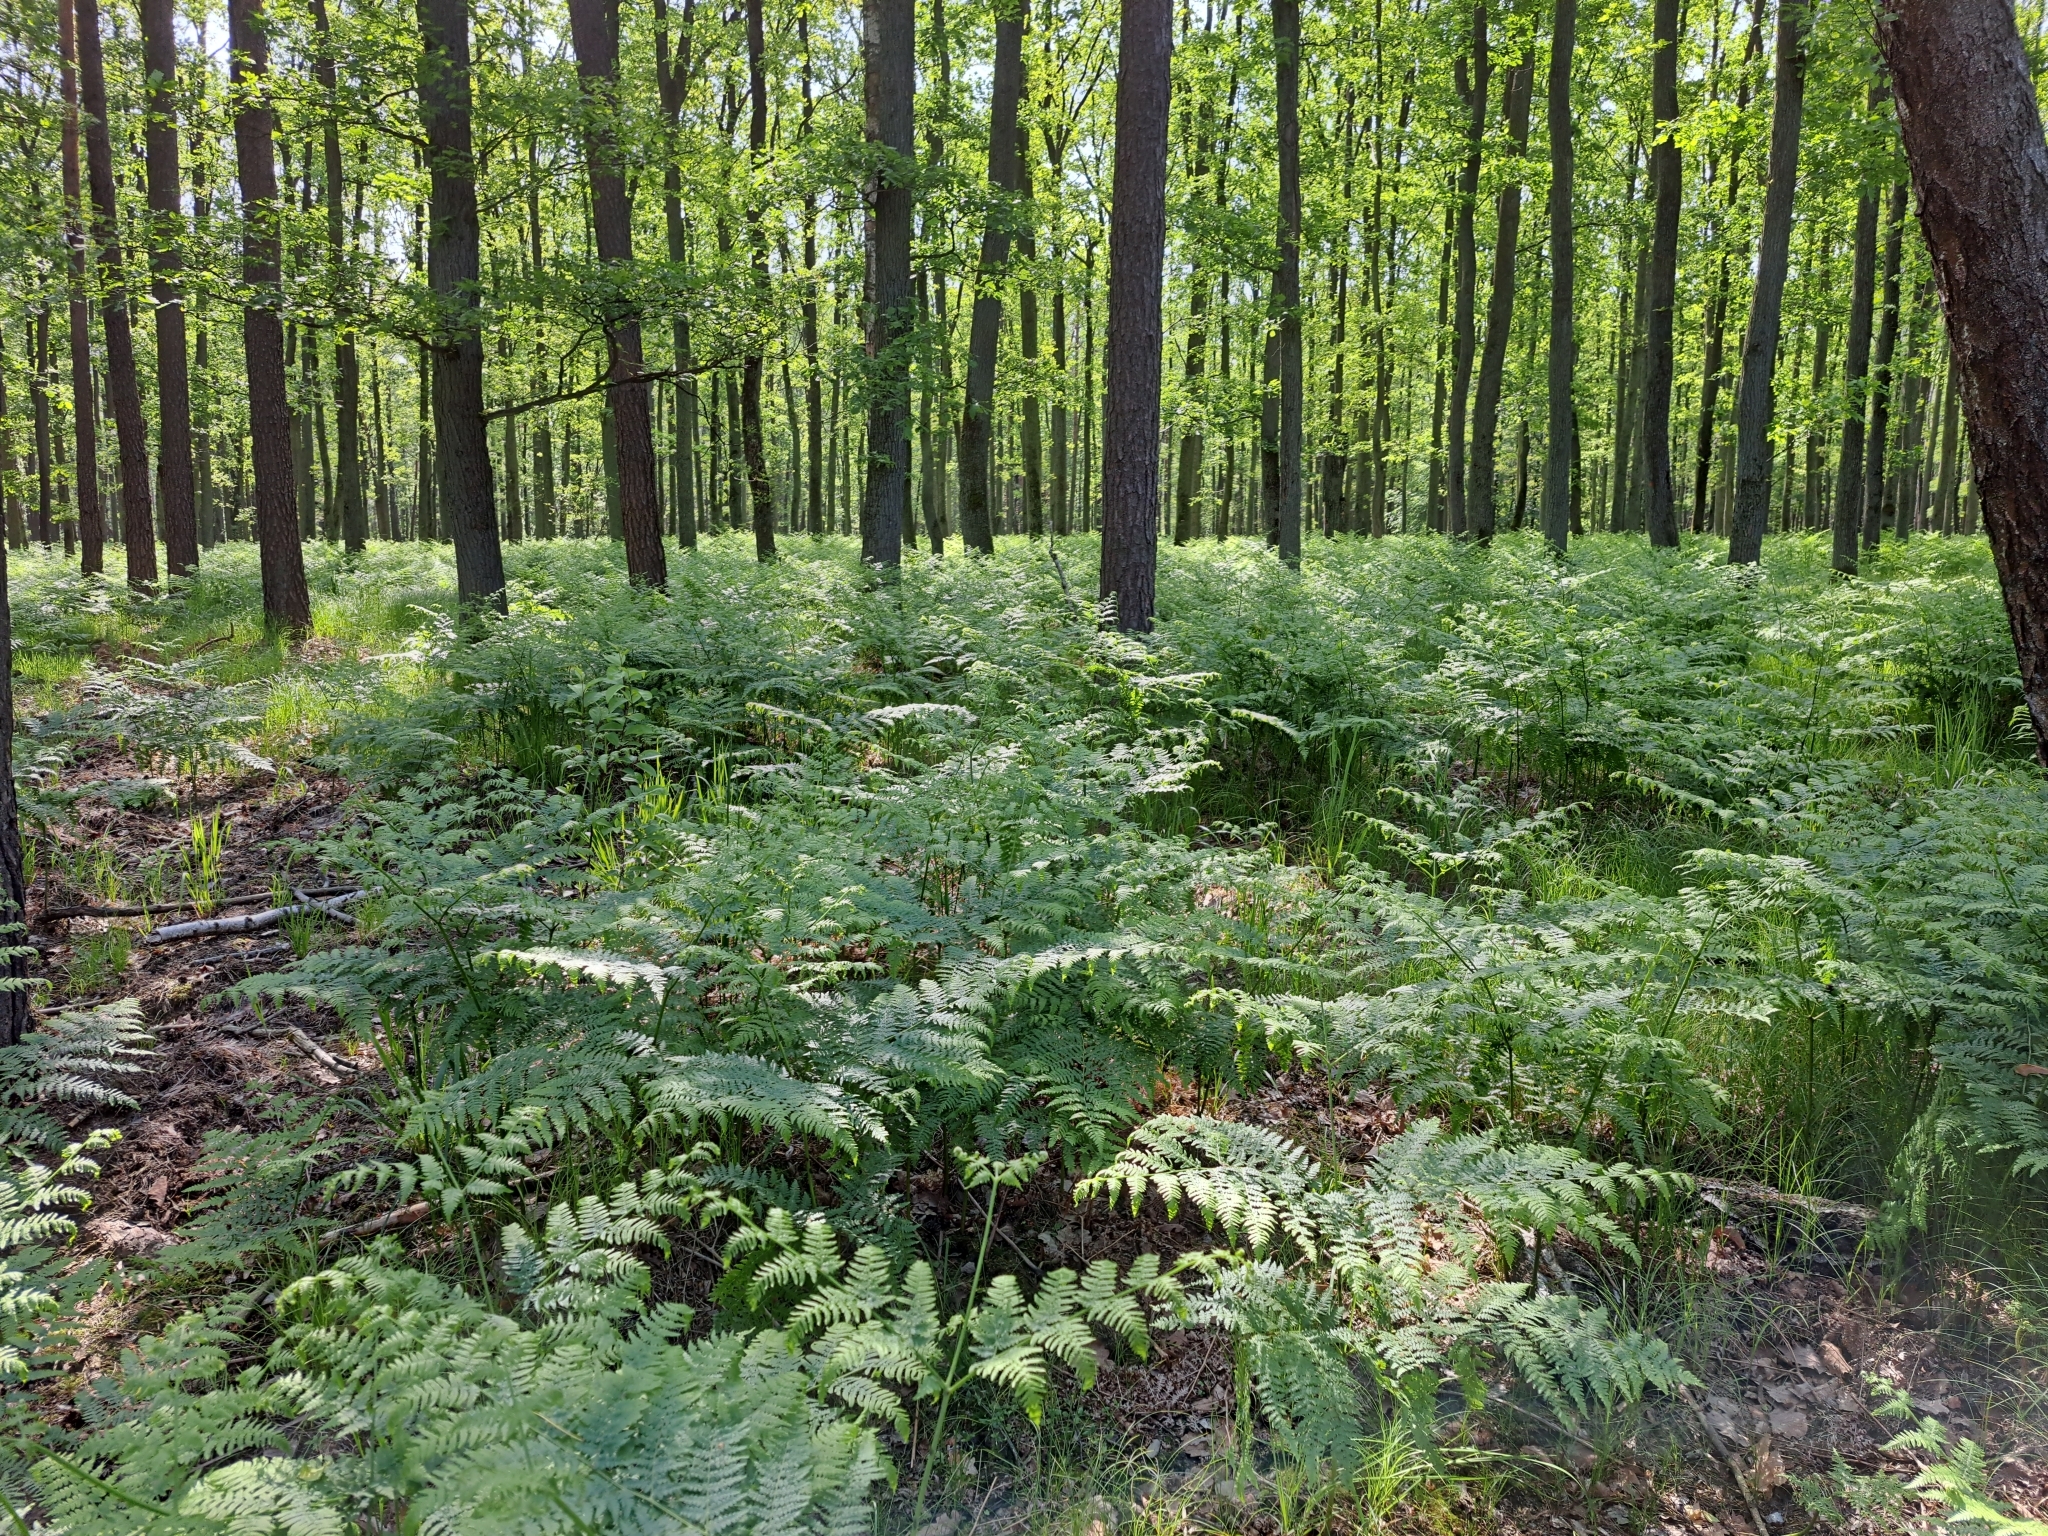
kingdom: Plantae
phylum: Tracheophyta
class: Polypodiopsida
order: Polypodiales
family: Dennstaedtiaceae
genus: Pteridium
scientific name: Pteridium aquilinum
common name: Bracken
